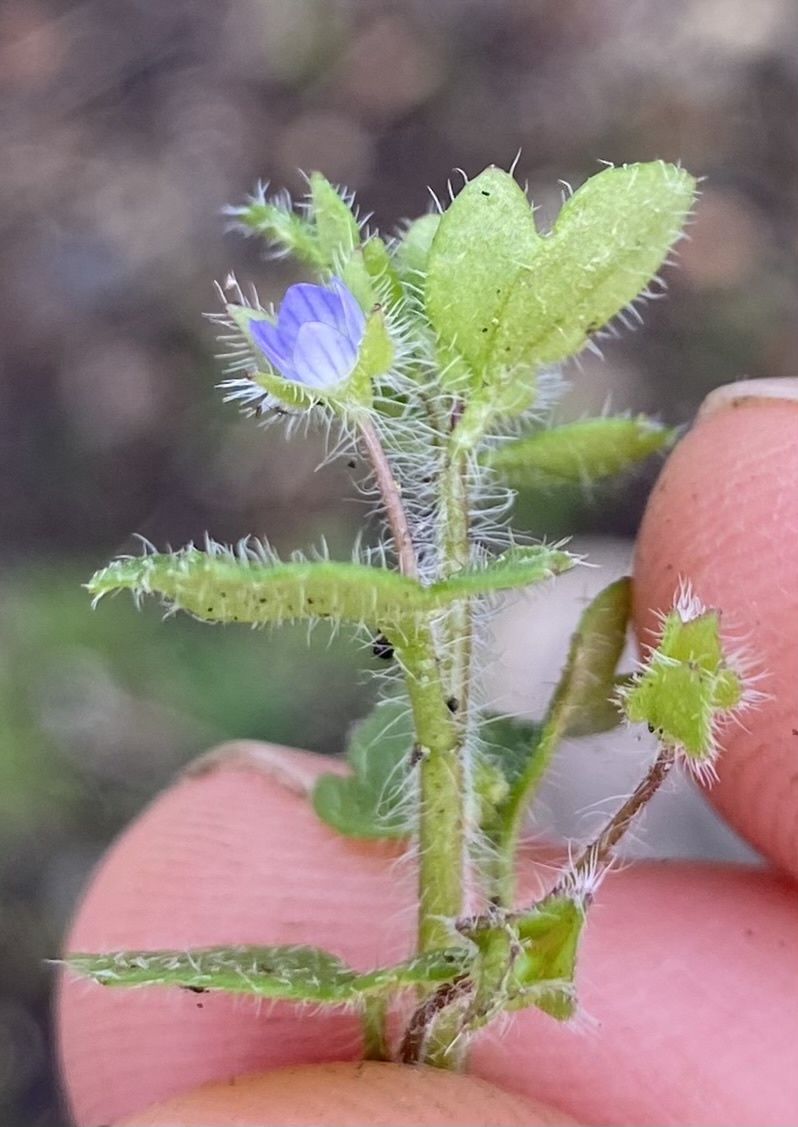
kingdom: Plantae
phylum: Tracheophyta
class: Magnoliopsida
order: Lamiales
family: Plantaginaceae
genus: Veronica
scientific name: Veronica hederifolia
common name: Ivy-leaved speedwell
